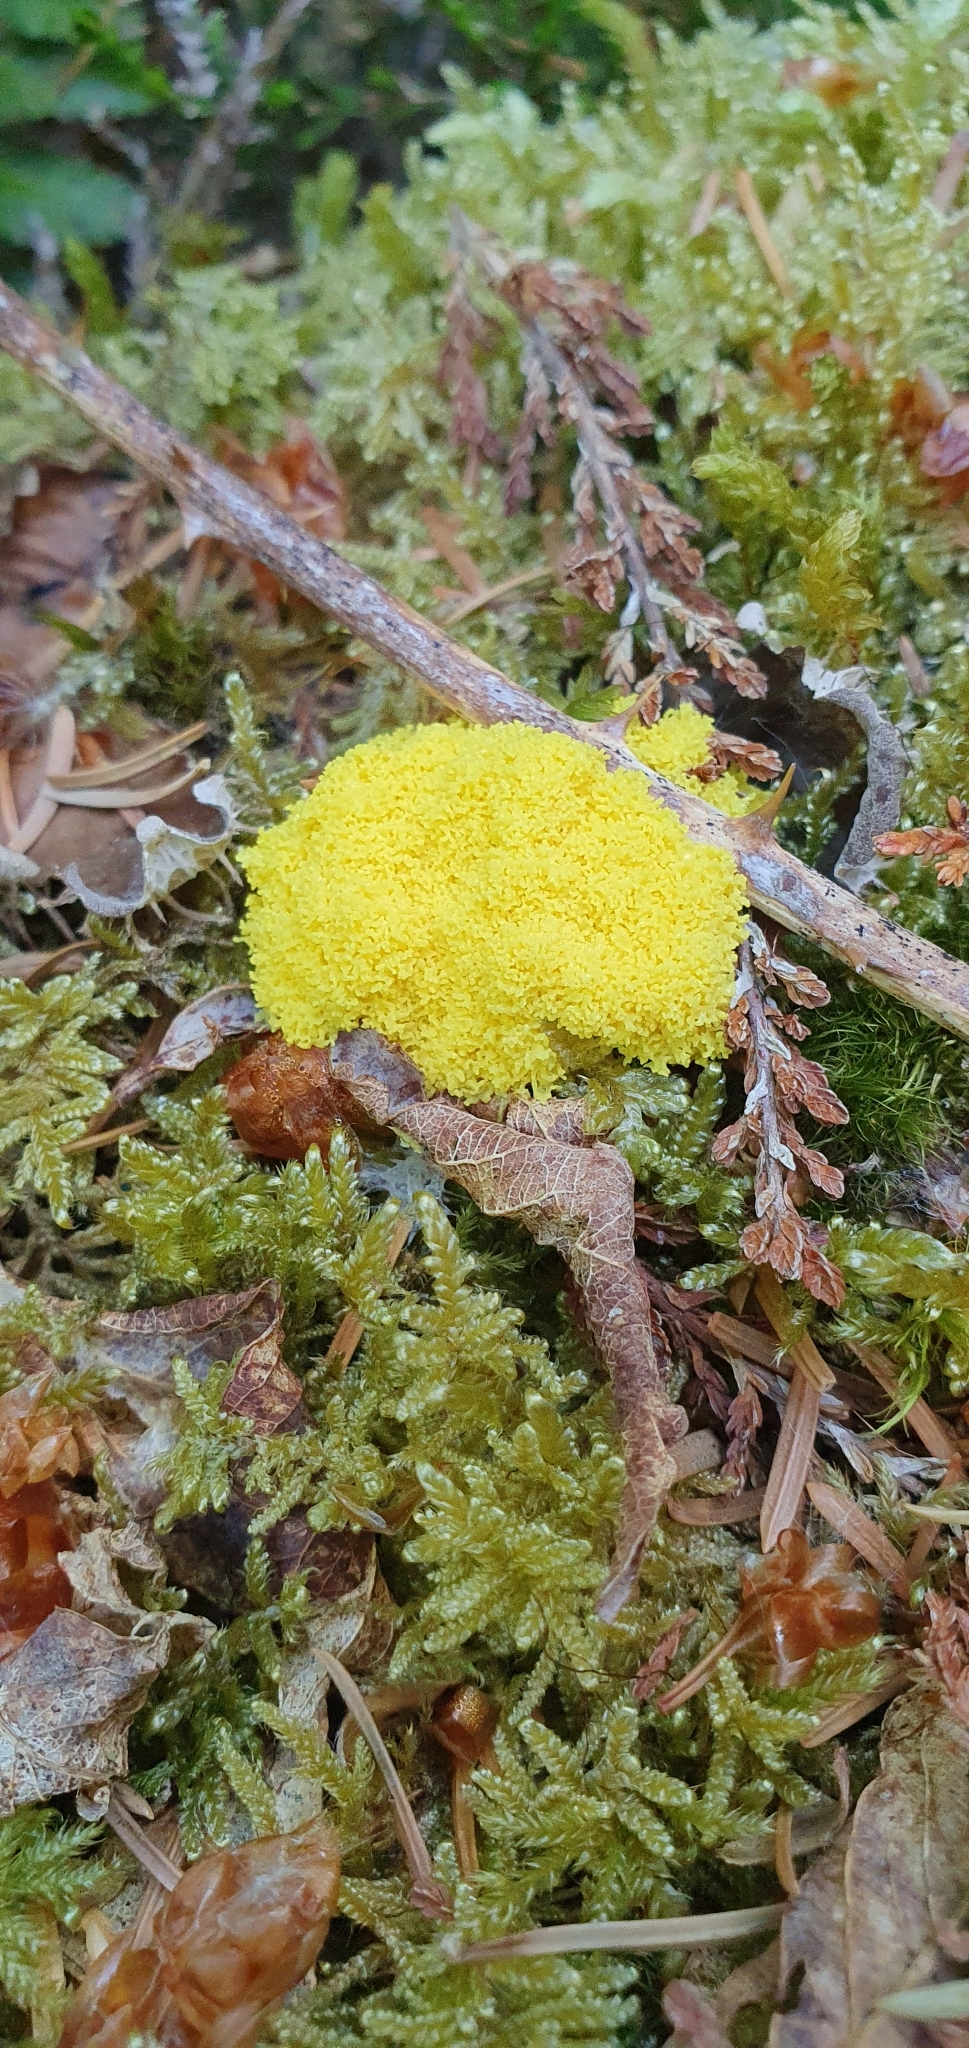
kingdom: Protozoa
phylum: Mycetozoa
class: Myxomycetes
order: Physarales
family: Physaraceae
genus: Fuligo
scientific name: Fuligo septica
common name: Dog vomit slime mold
